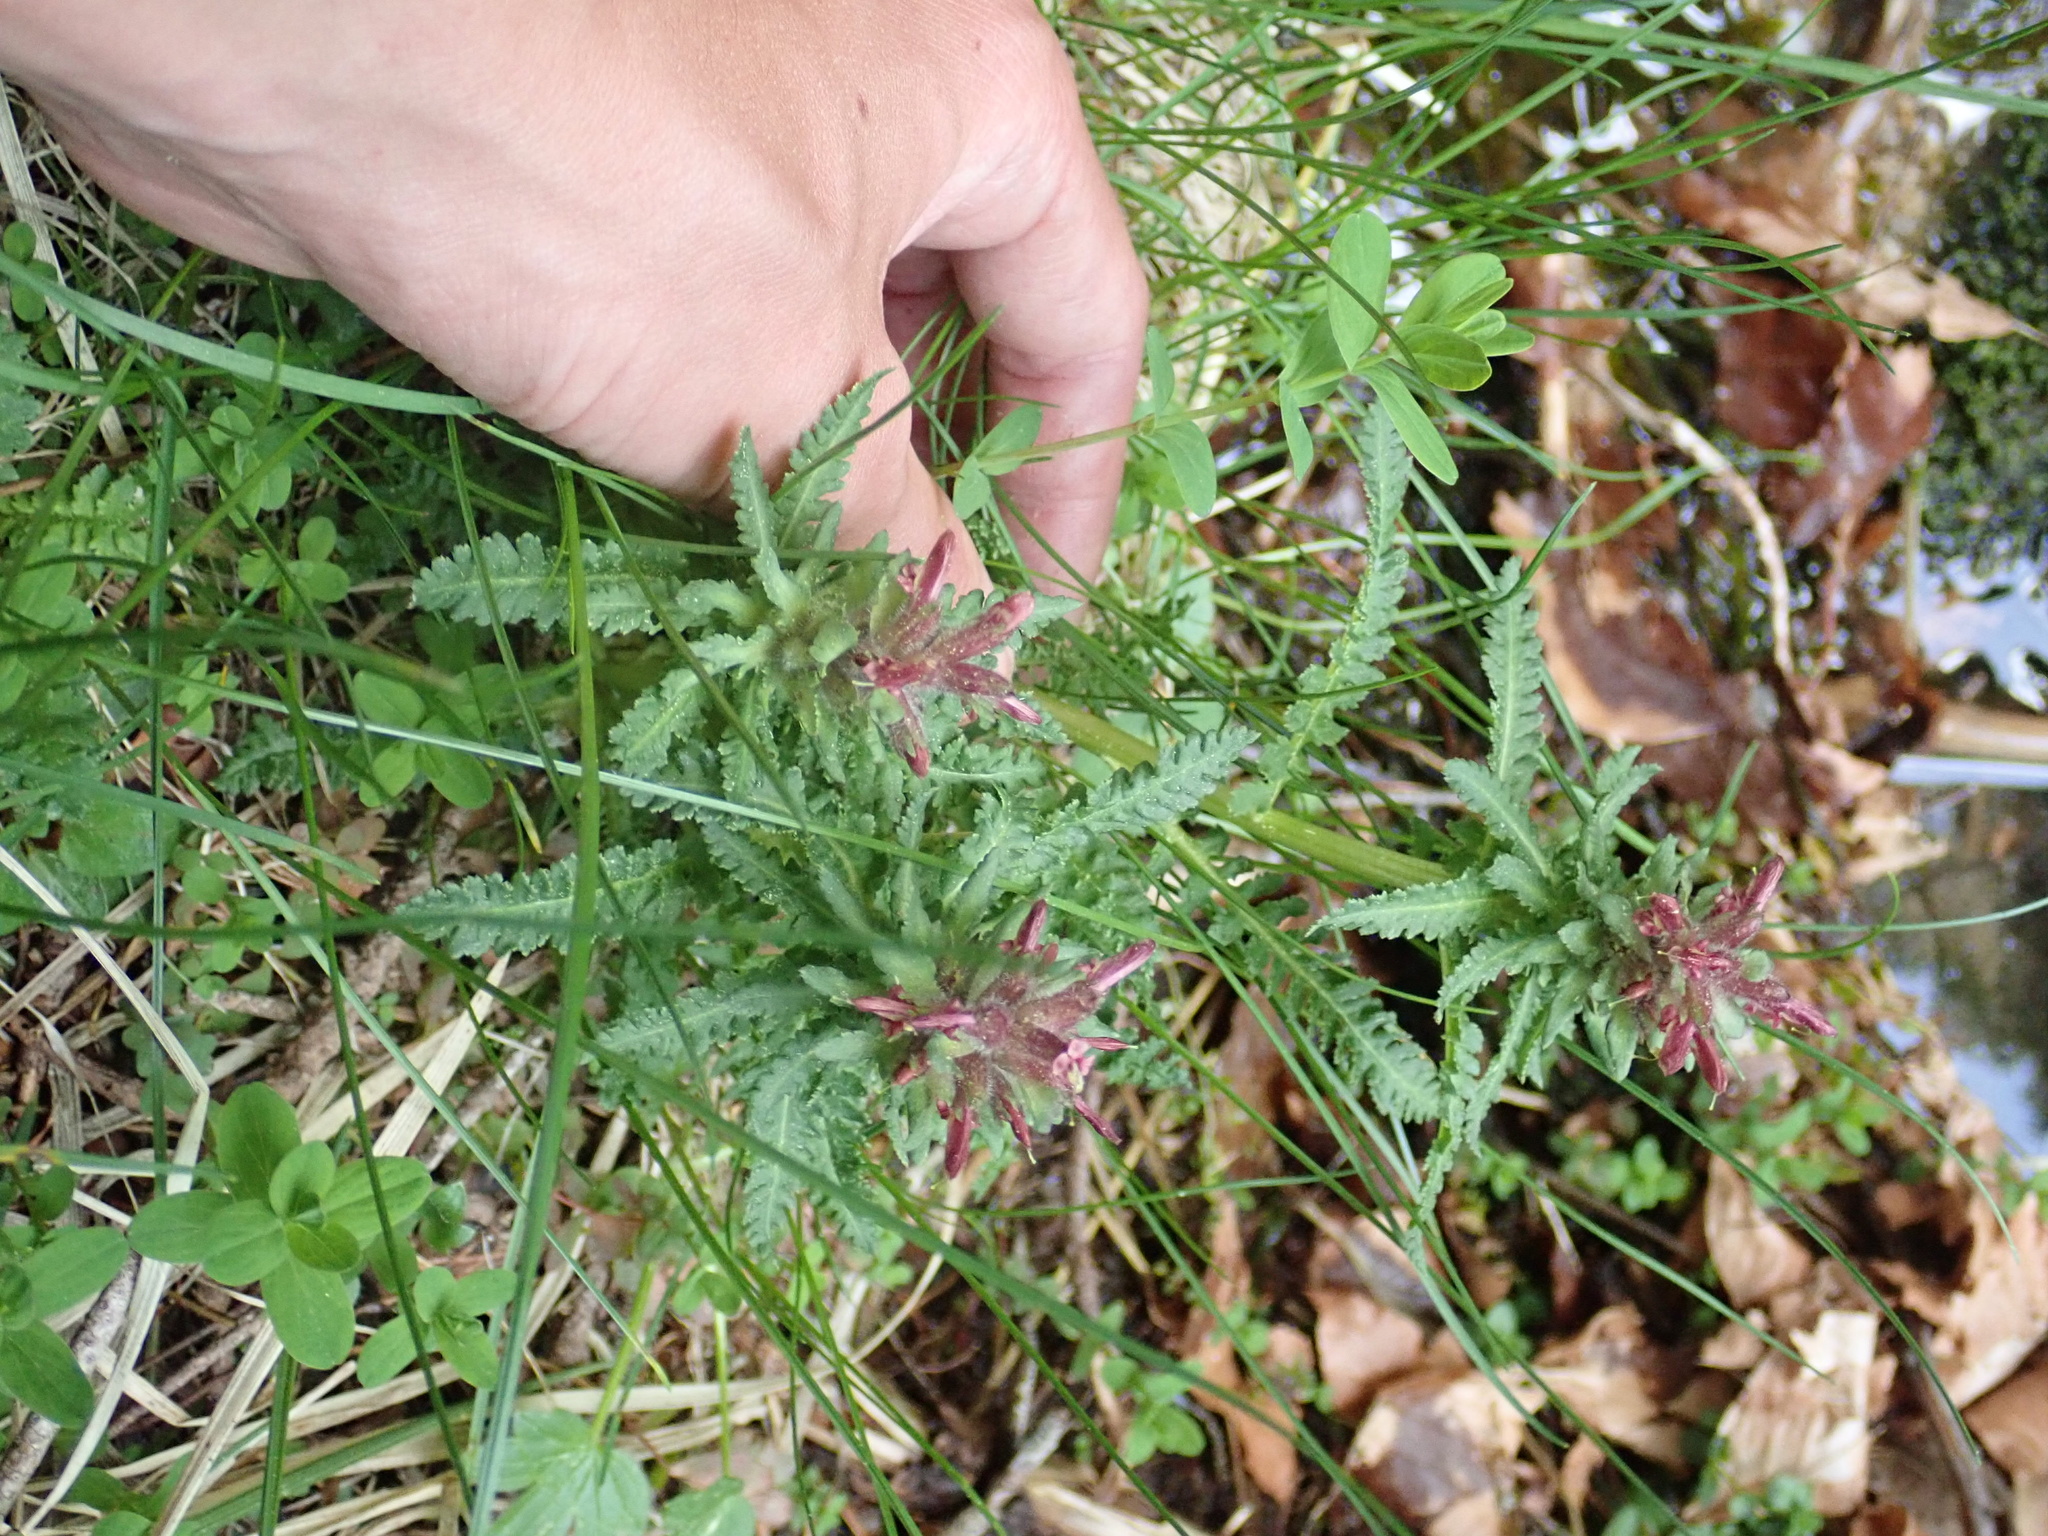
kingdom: Plantae
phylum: Tracheophyta
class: Magnoliopsida
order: Lamiales
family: Orobanchaceae
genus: Pedicularis
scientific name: Pedicularis olympica
